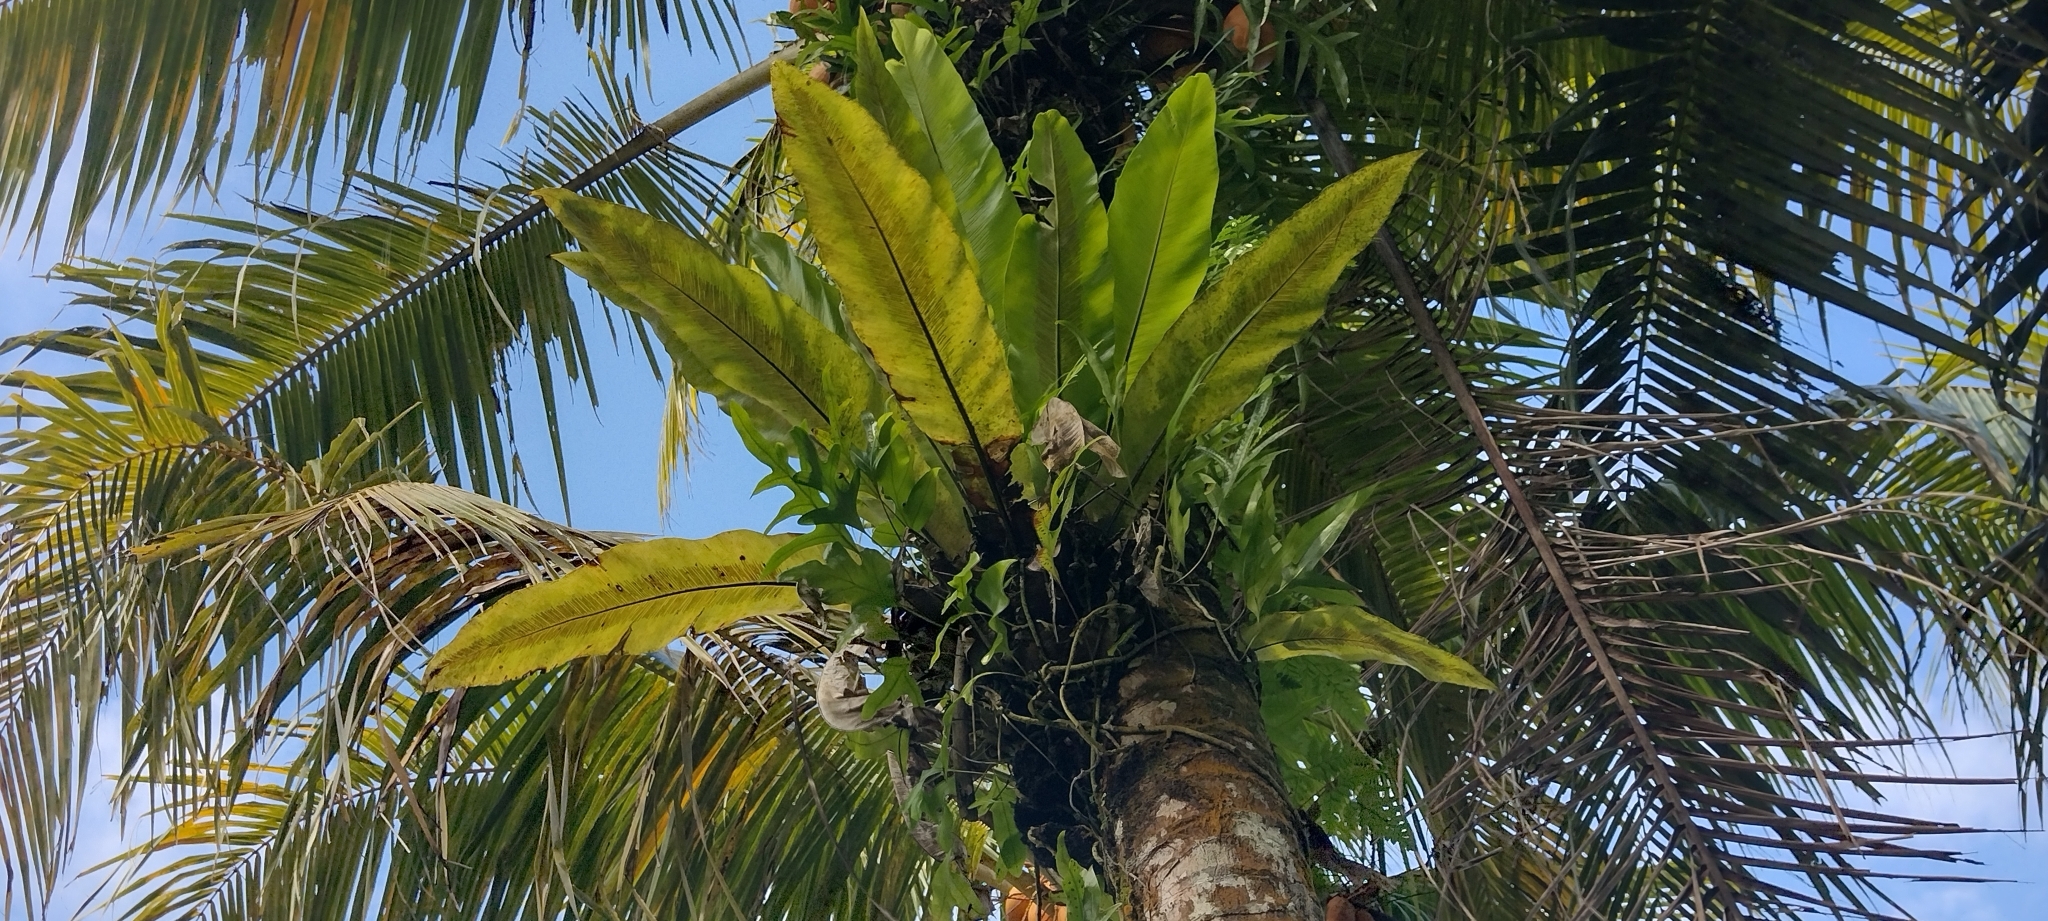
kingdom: Plantae
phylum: Tracheophyta
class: Polypodiopsida
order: Polypodiales
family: Aspleniaceae
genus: Asplenium
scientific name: Asplenium nidus
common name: Bird's-nest fern
